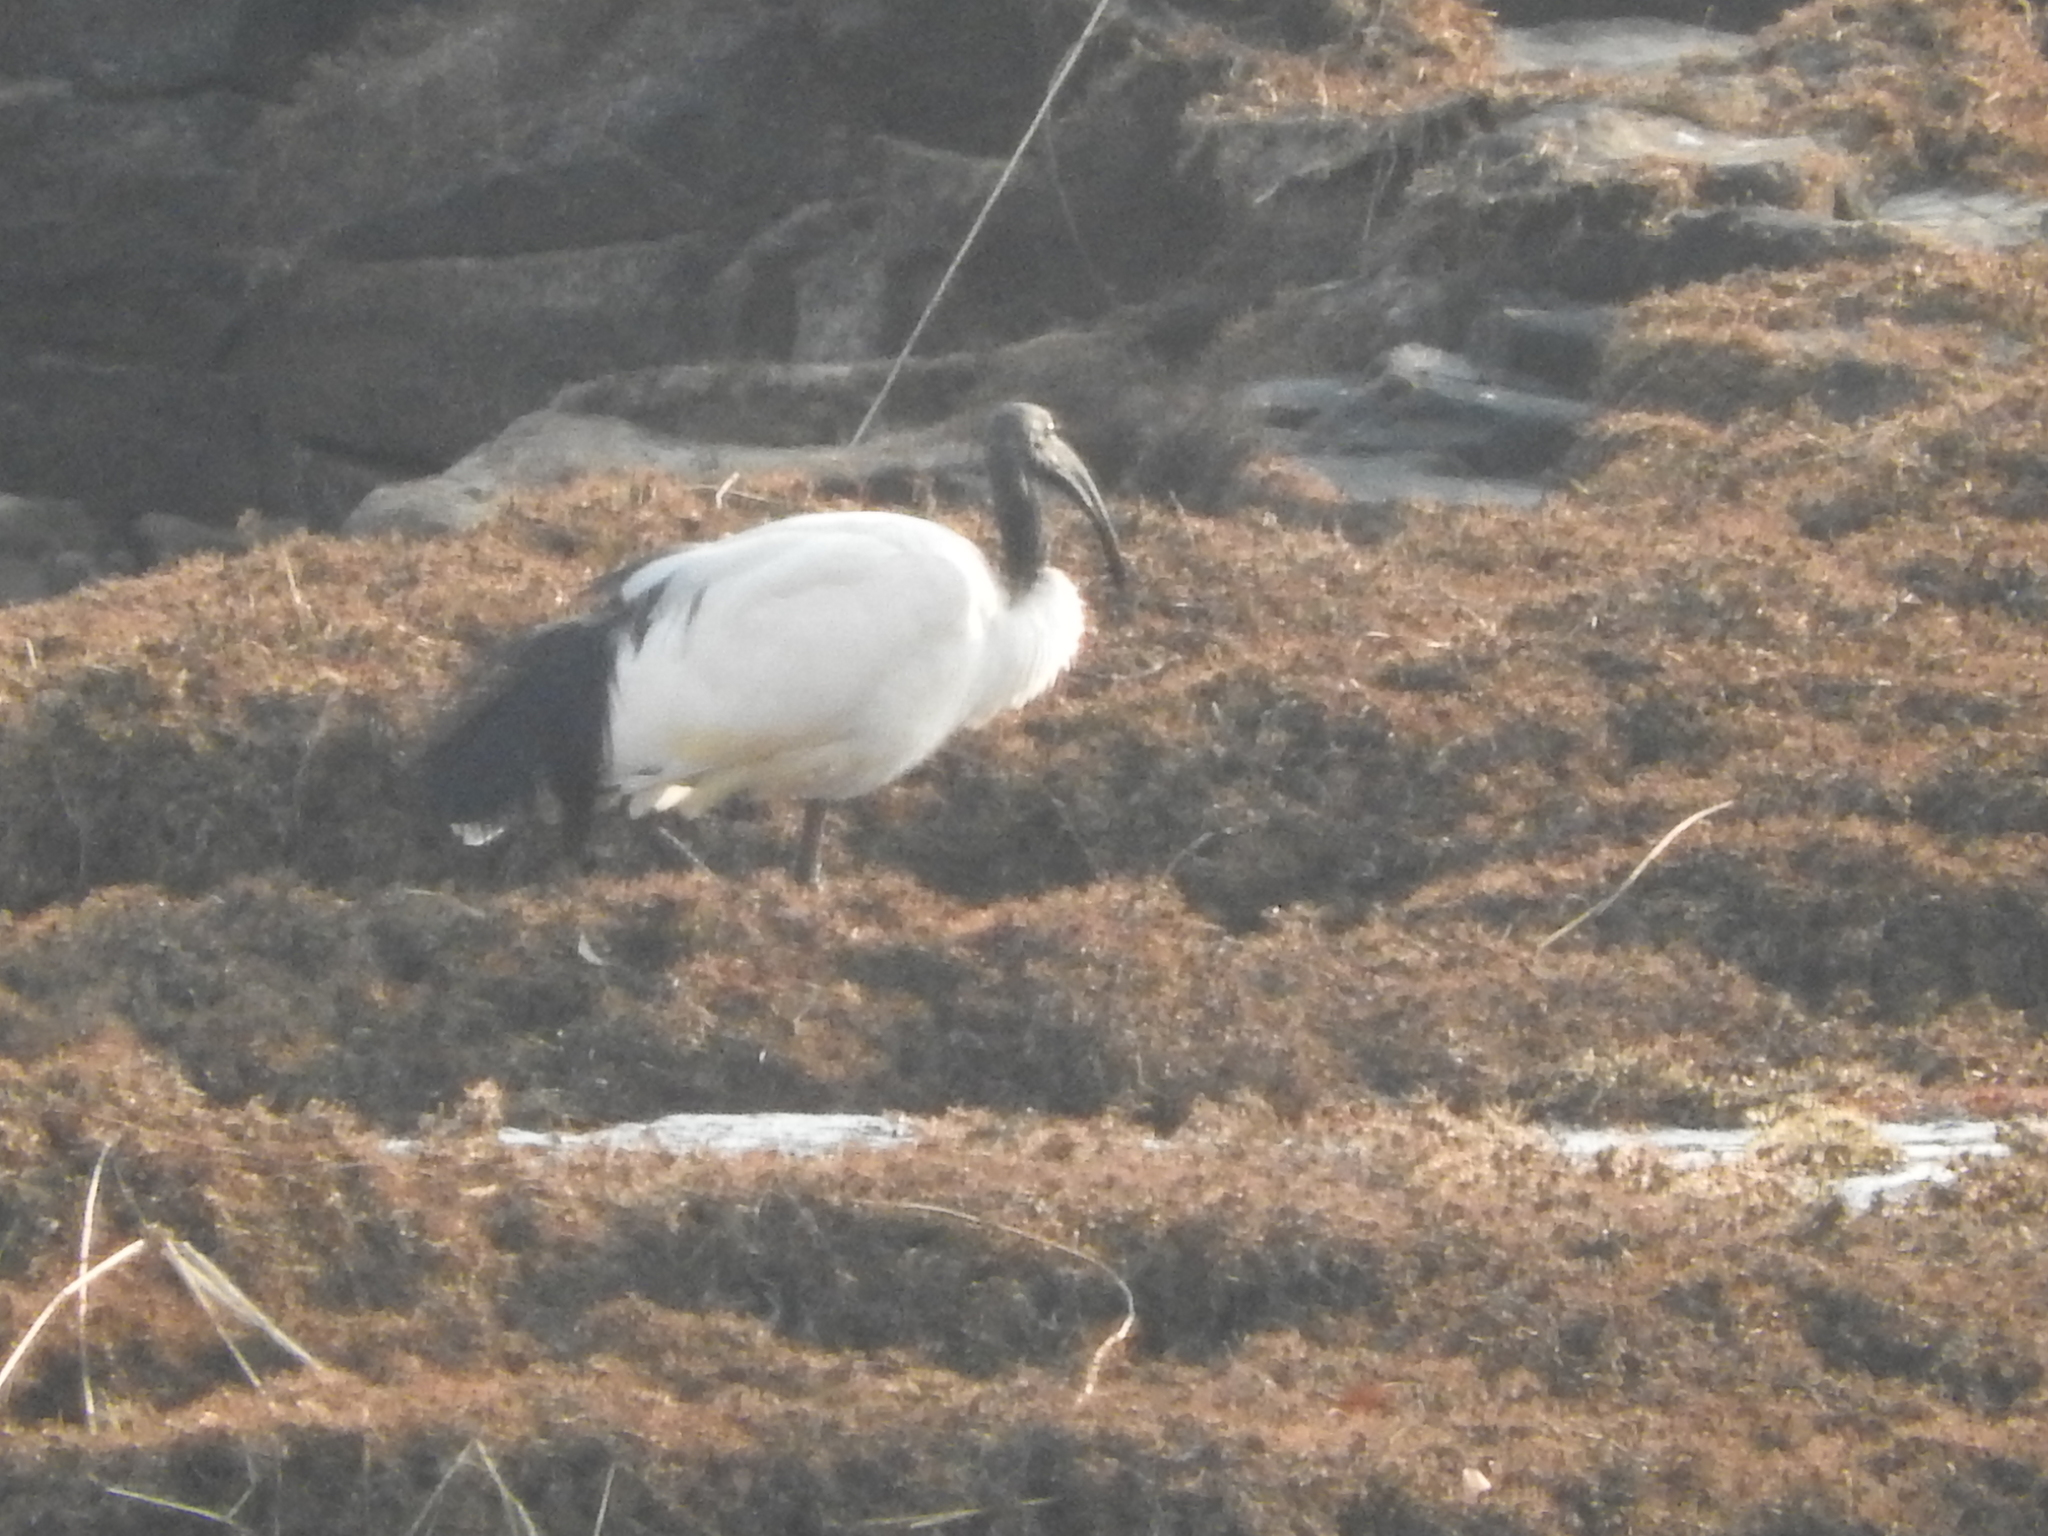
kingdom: Animalia
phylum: Chordata
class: Aves
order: Pelecaniformes
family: Threskiornithidae
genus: Threskiornis
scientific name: Threskiornis aethiopicus
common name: Sacred ibis
